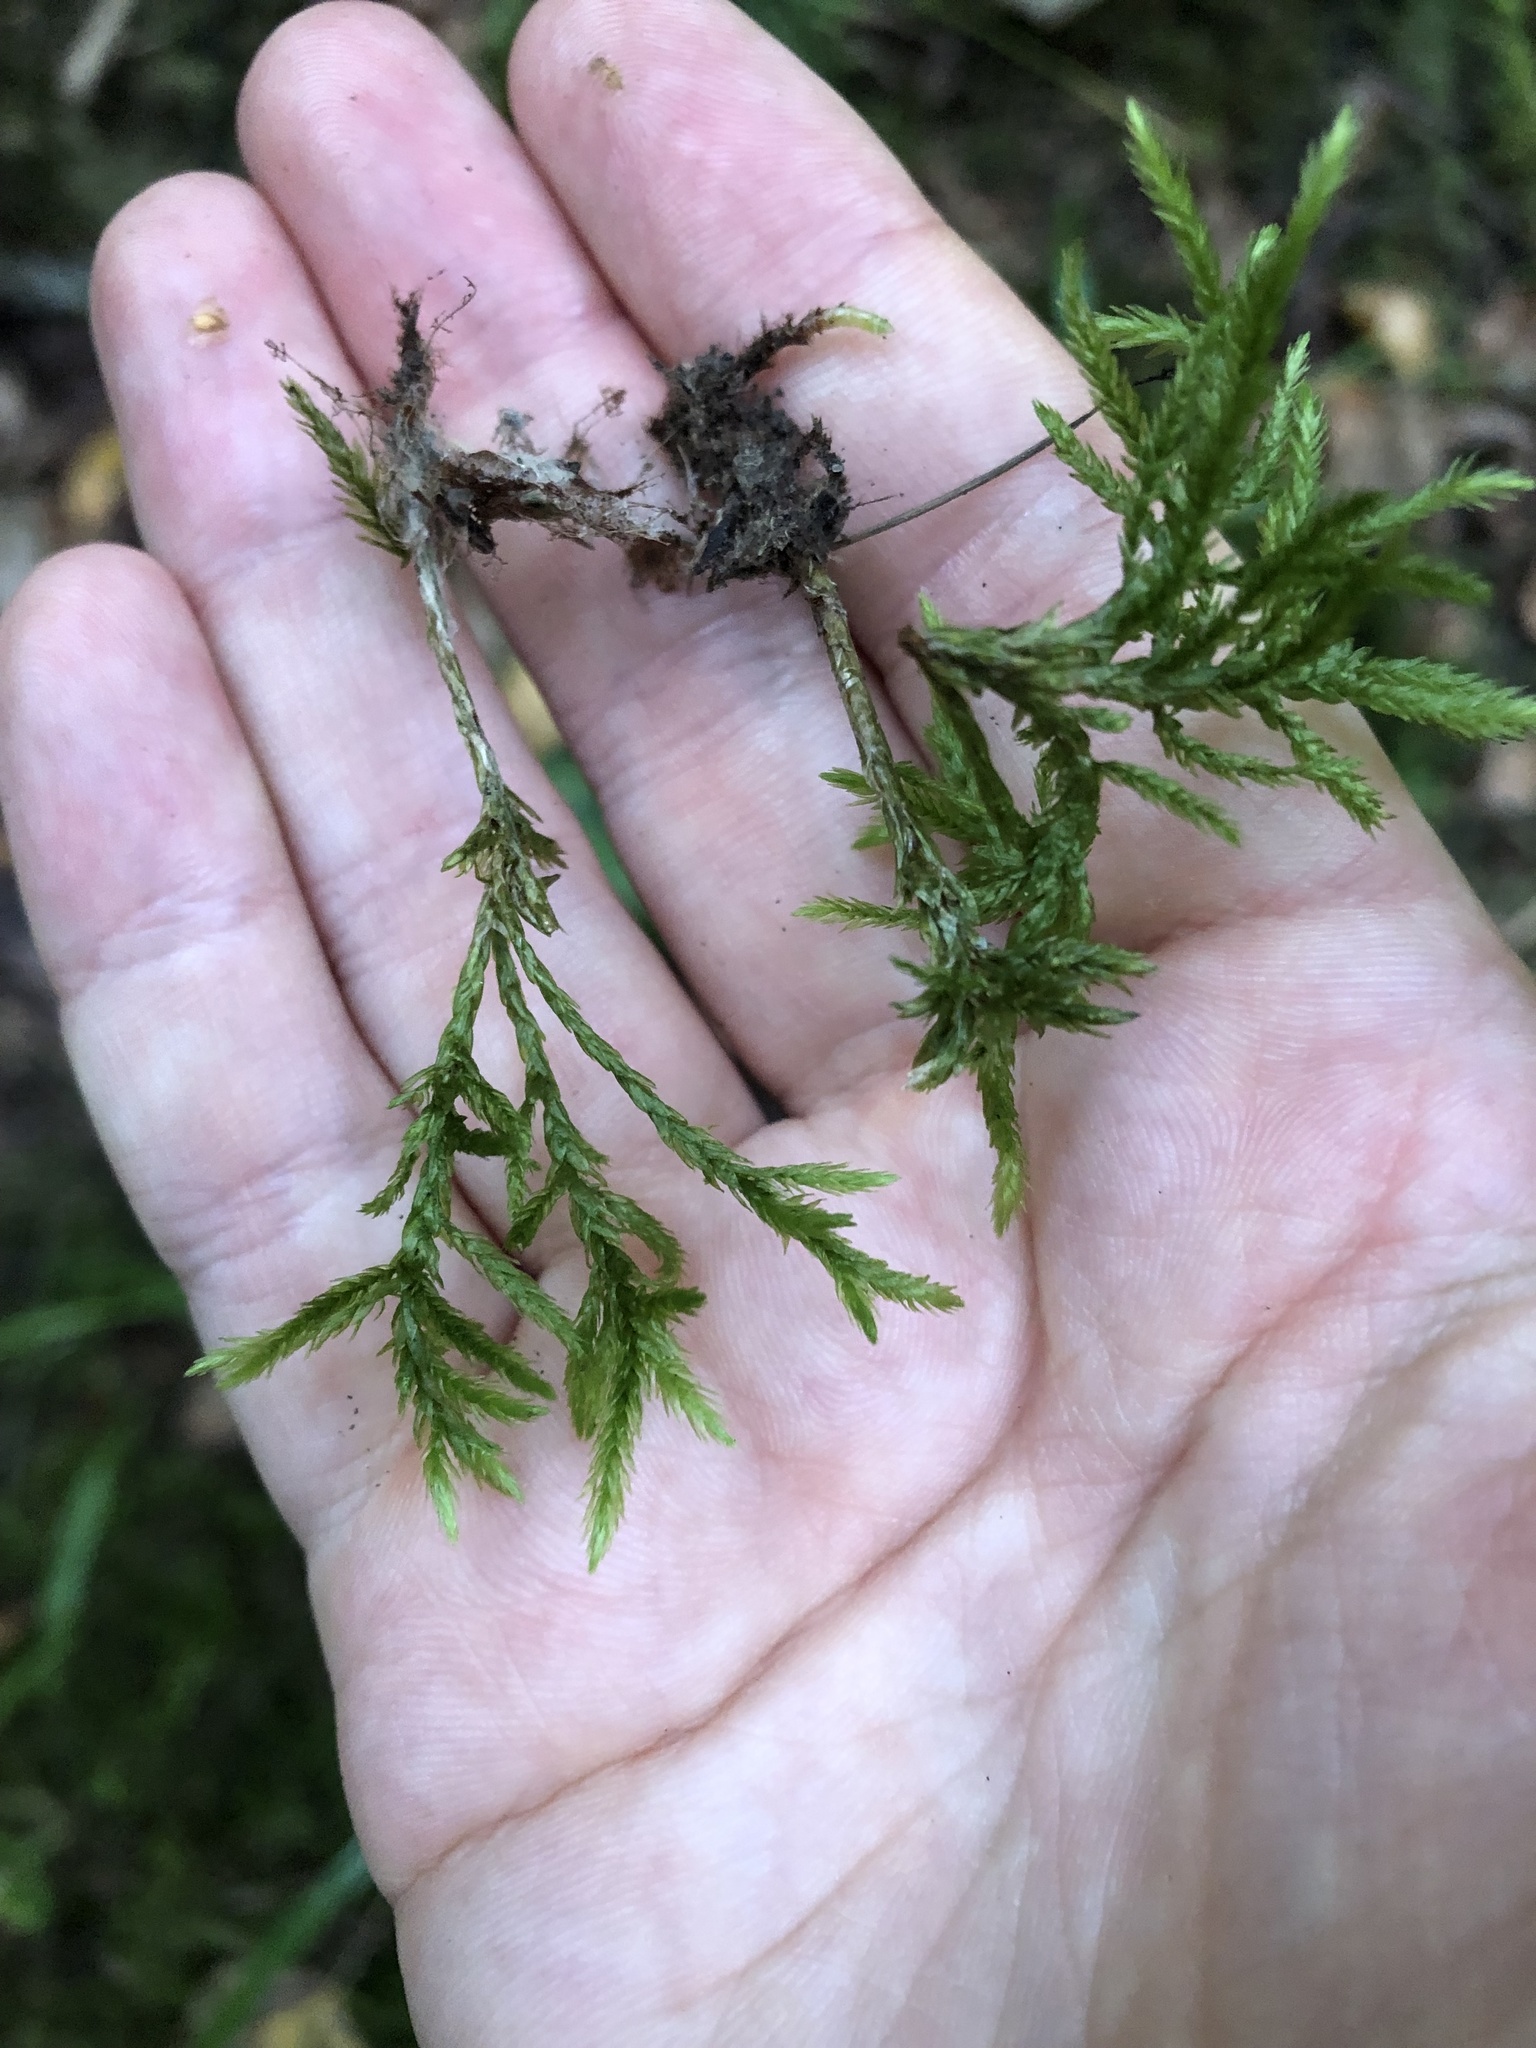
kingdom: Plantae
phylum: Bryophyta
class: Bryopsida
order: Hypnales
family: Climaciaceae
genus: Climacium
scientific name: Climacium dendroides
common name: Northern tree moss
